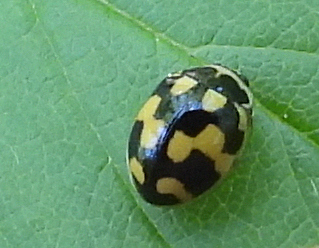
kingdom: Animalia
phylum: Arthropoda
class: Insecta
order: Coleoptera
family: Coccinellidae
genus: Propylaea
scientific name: Propylaea quatuordecimpunctata
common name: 14-spotted ladybird beetle
